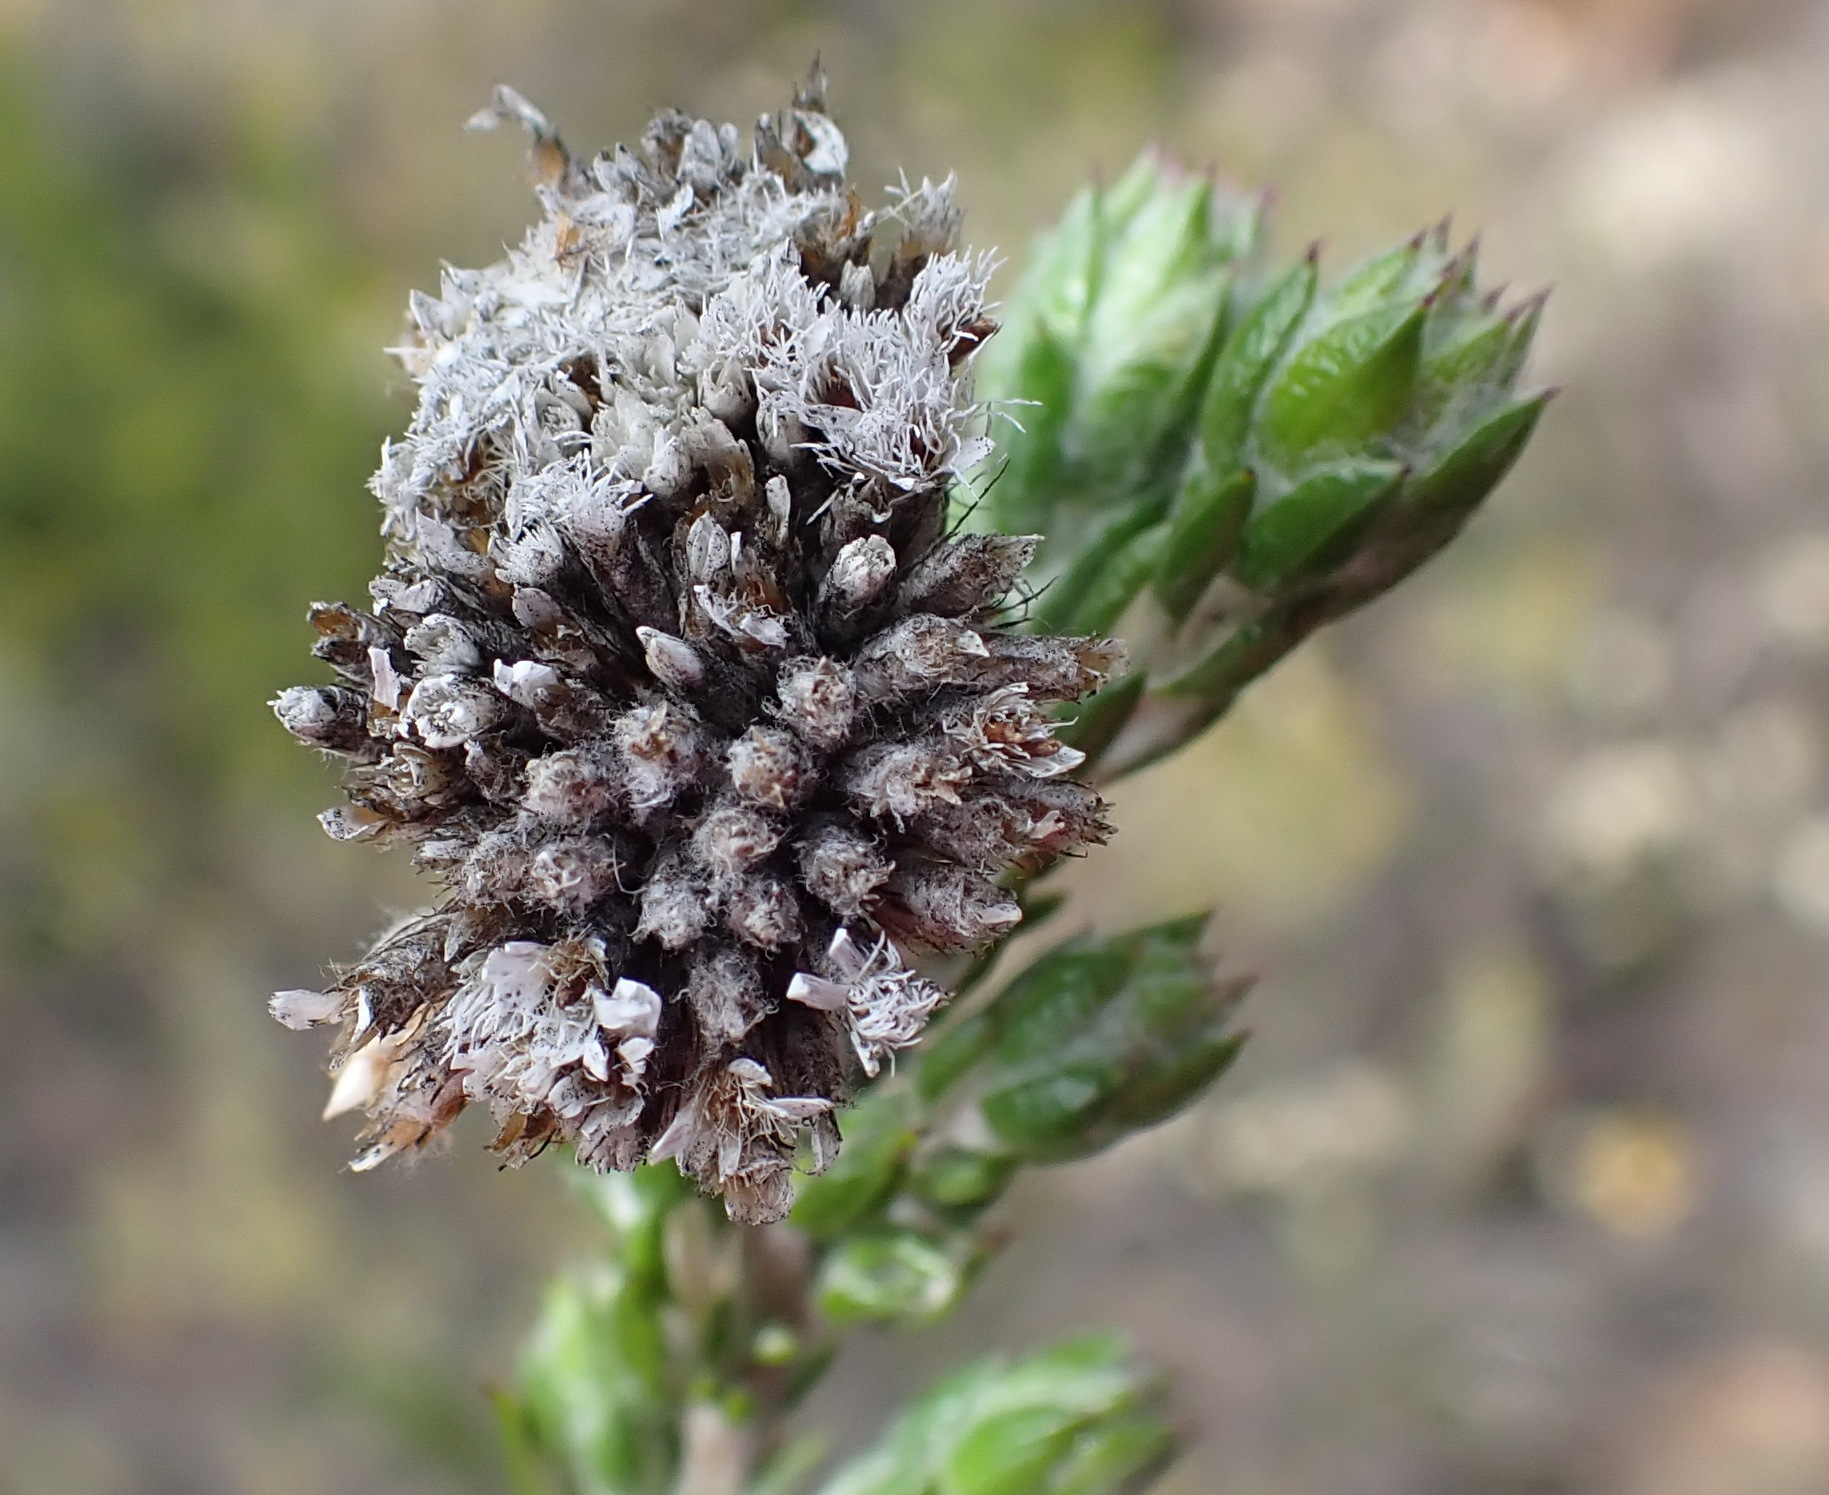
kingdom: Plantae
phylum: Tracheophyta
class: Magnoliopsida
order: Asterales
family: Asteraceae
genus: Metalasia
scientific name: Metalasia pungens
